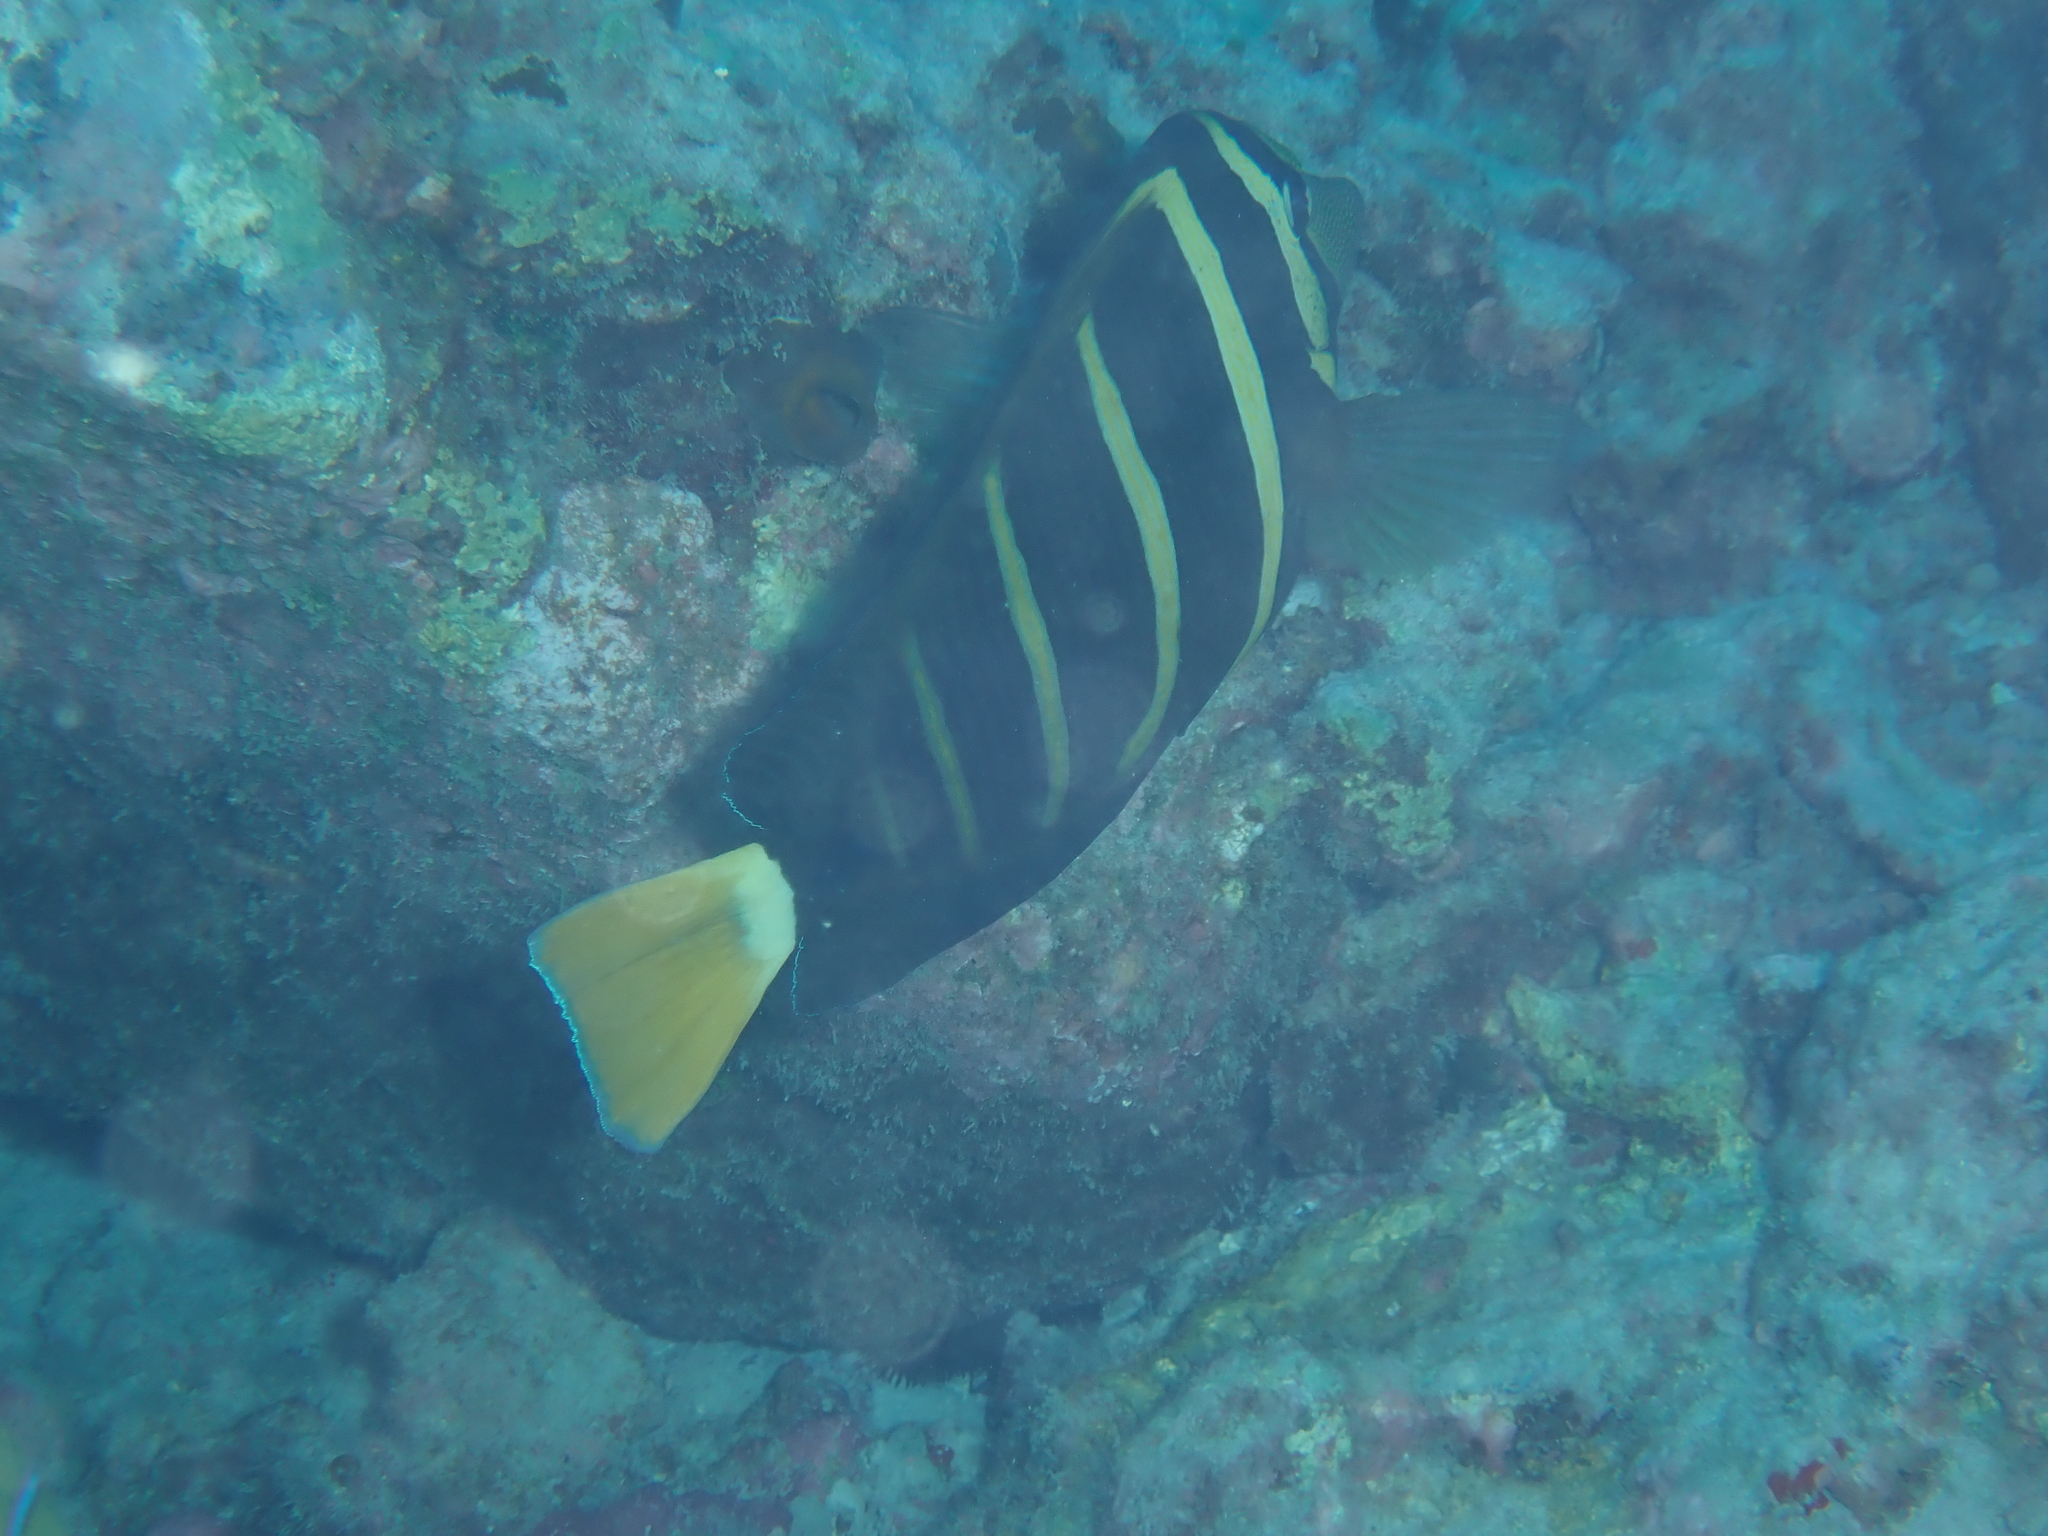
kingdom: Animalia
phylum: Chordata
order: Perciformes
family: Acanthuridae
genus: Zebrasoma
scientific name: Zebrasoma veliferum
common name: Sailfin surgeonfish
